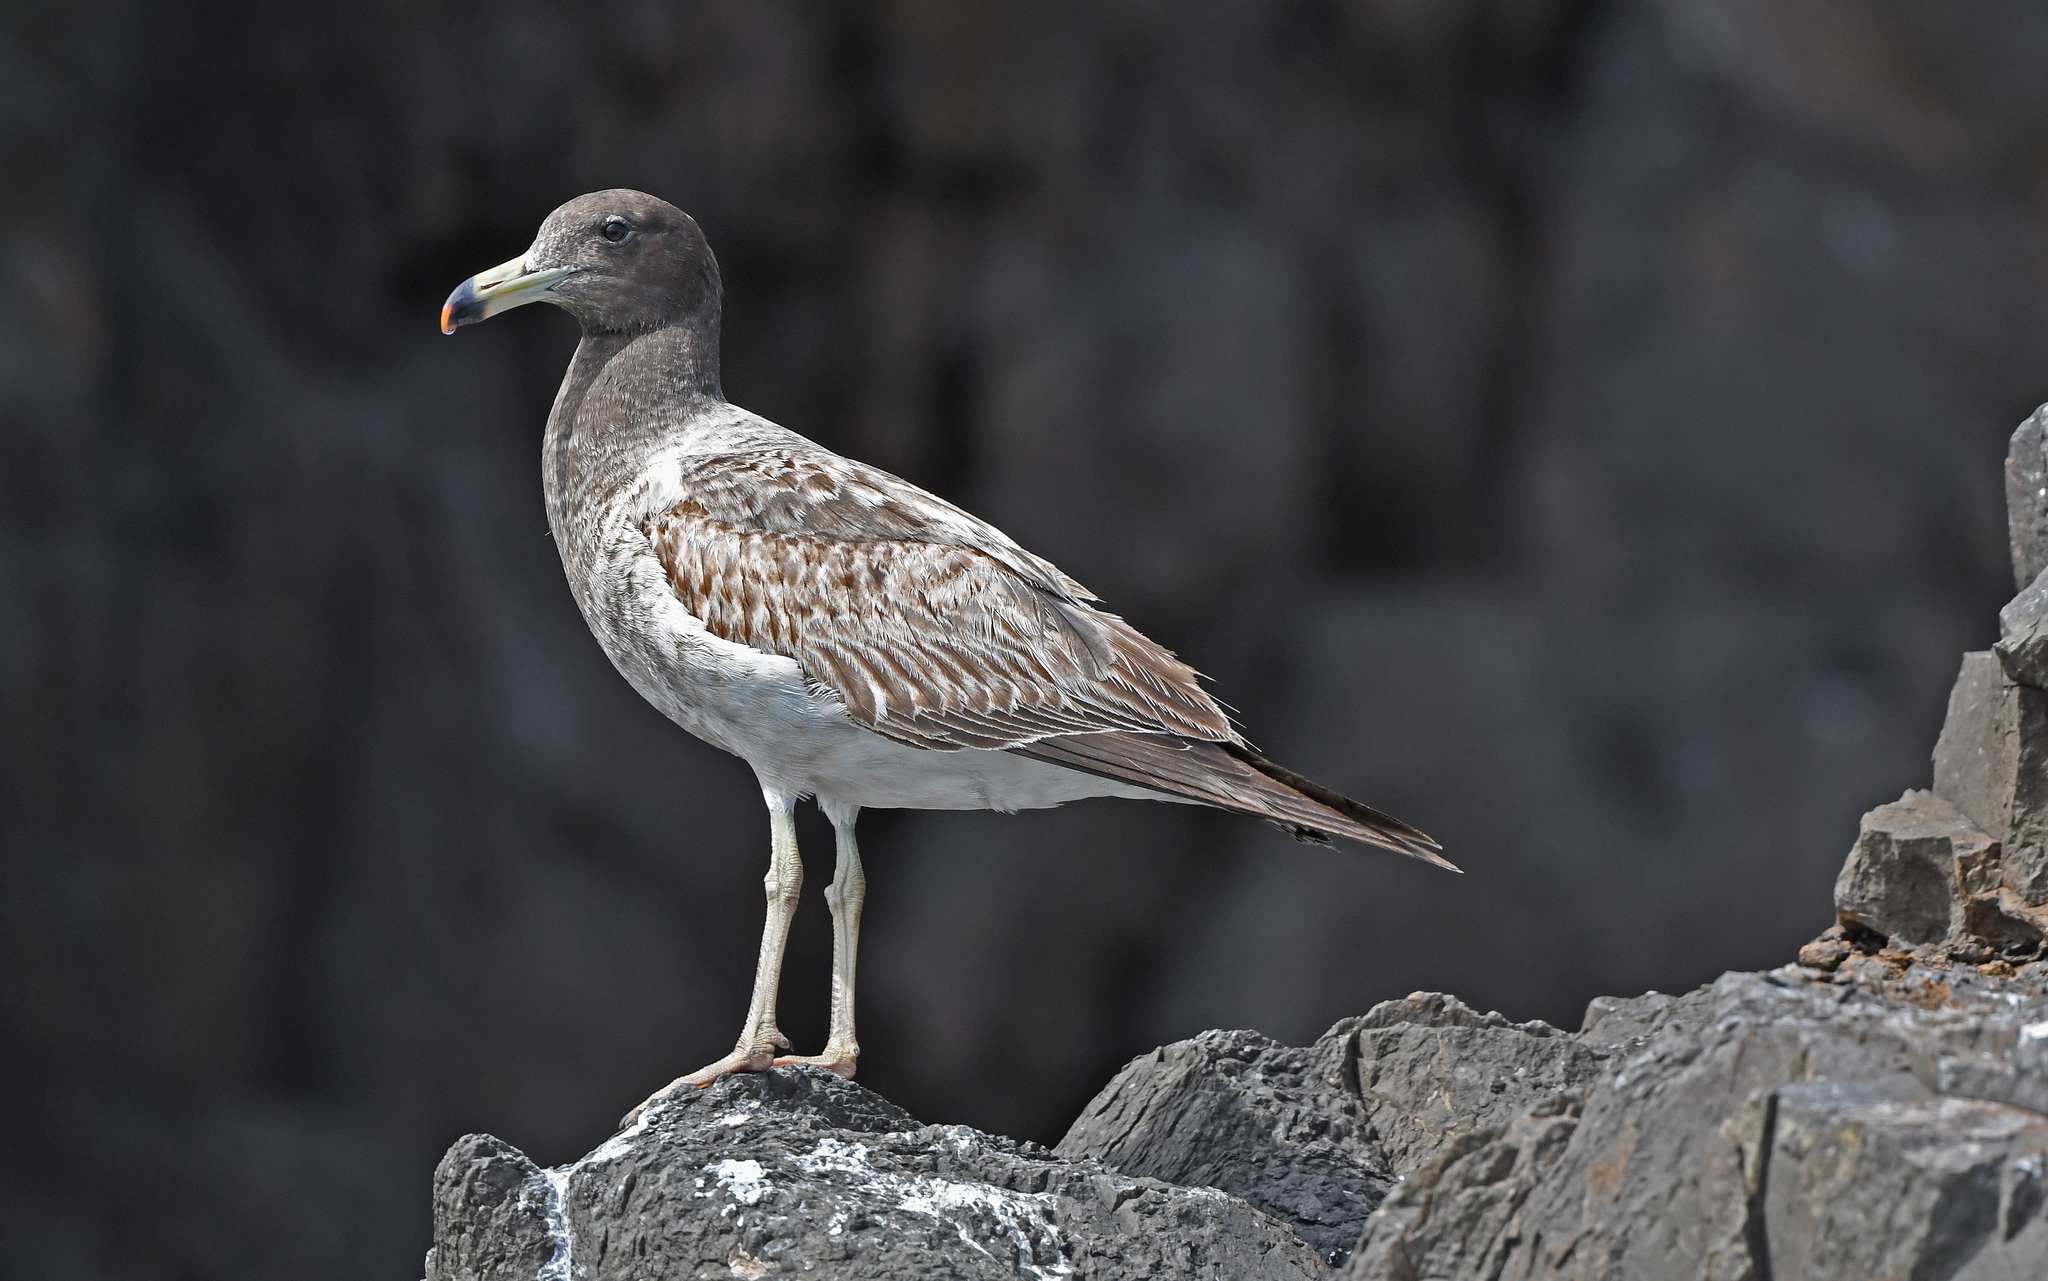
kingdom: Animalia
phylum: Chordata
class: Aves
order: Charadriiformes
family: Laridae
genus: Larus
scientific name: Larus belcheri
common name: Belcher's gull
